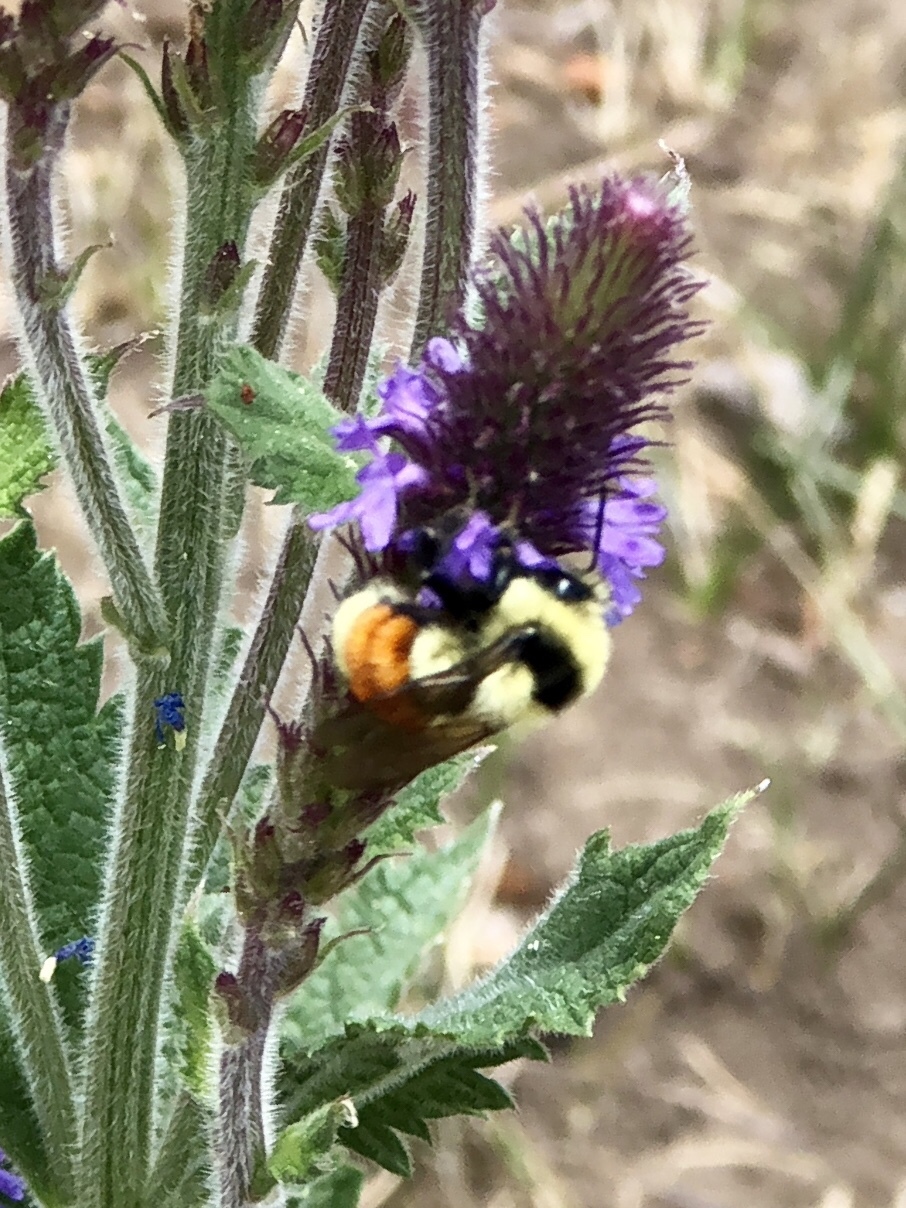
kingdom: Animalia
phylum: Arthropoda
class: Insecta
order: Hymenoptera
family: Apidae
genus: Bombus
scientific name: Bombus huntii
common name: Hunt bumble bee
